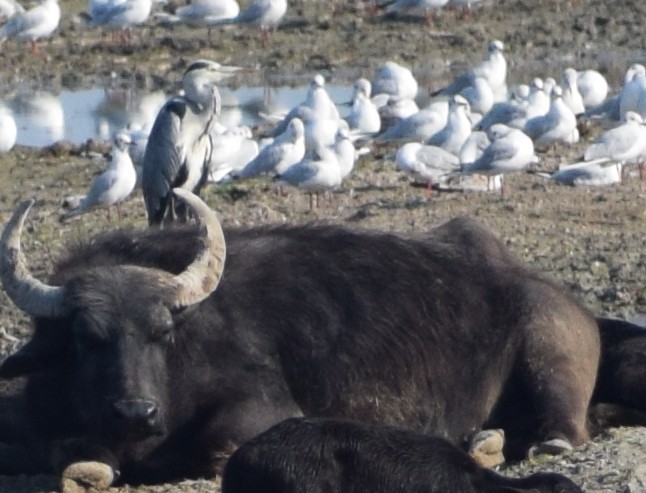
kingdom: Animalia
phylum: Chordata
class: Aves
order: Pelecaniformes
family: Ardeidae
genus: Ardea
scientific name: Ardea cinerea
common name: Grey heron
